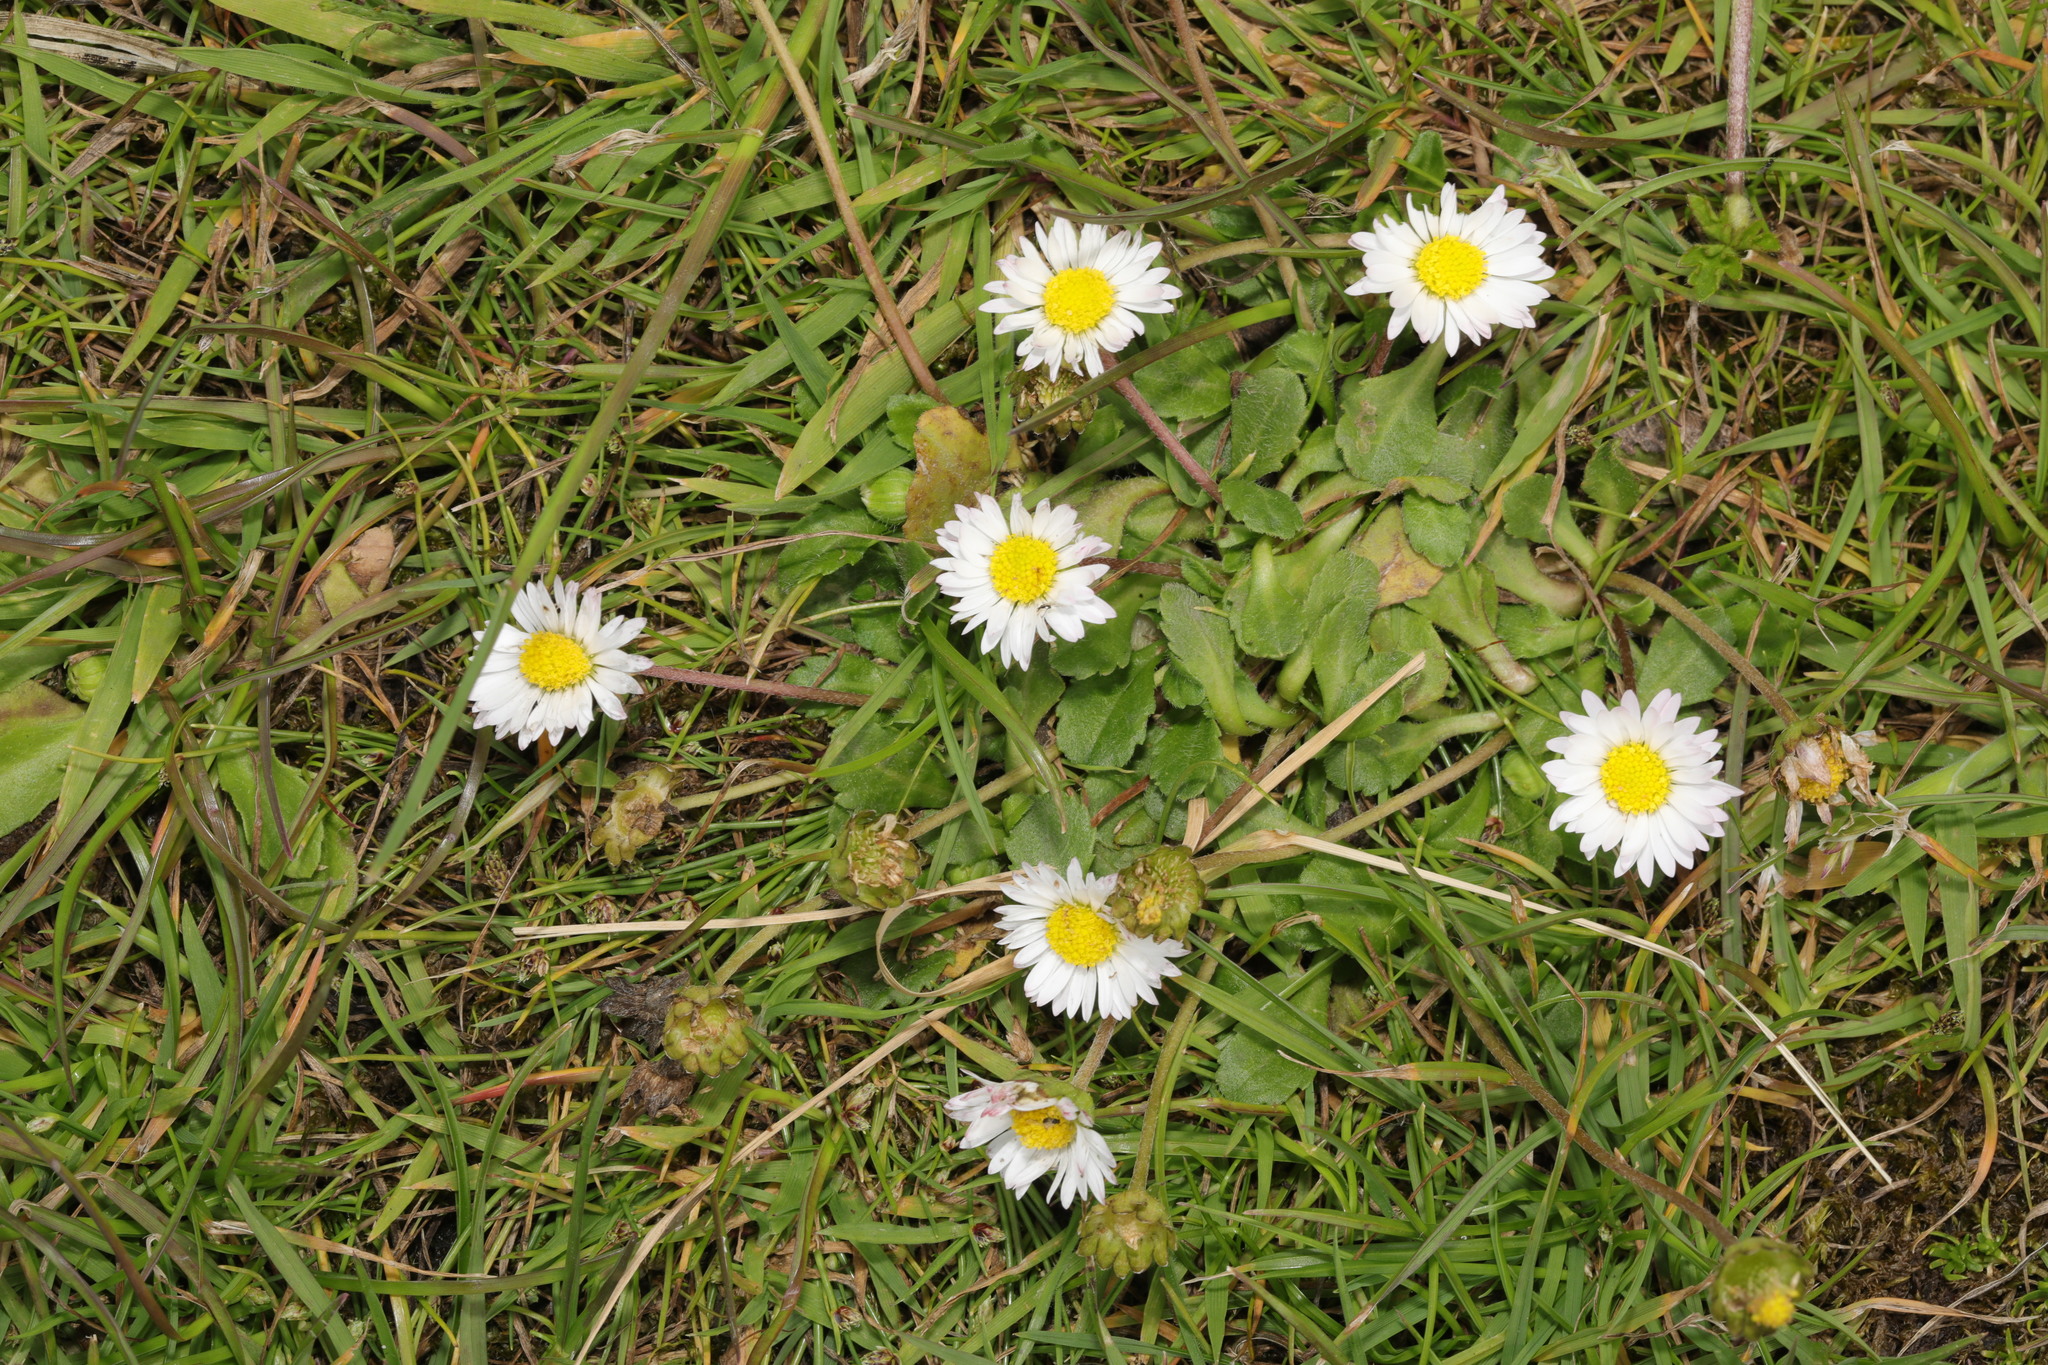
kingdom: Plantae
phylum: Tracheophyta
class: Magnoliopsida
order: Asterales
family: Asteraceae
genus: Bellis
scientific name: Bellis perennis
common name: Lawndaisy
